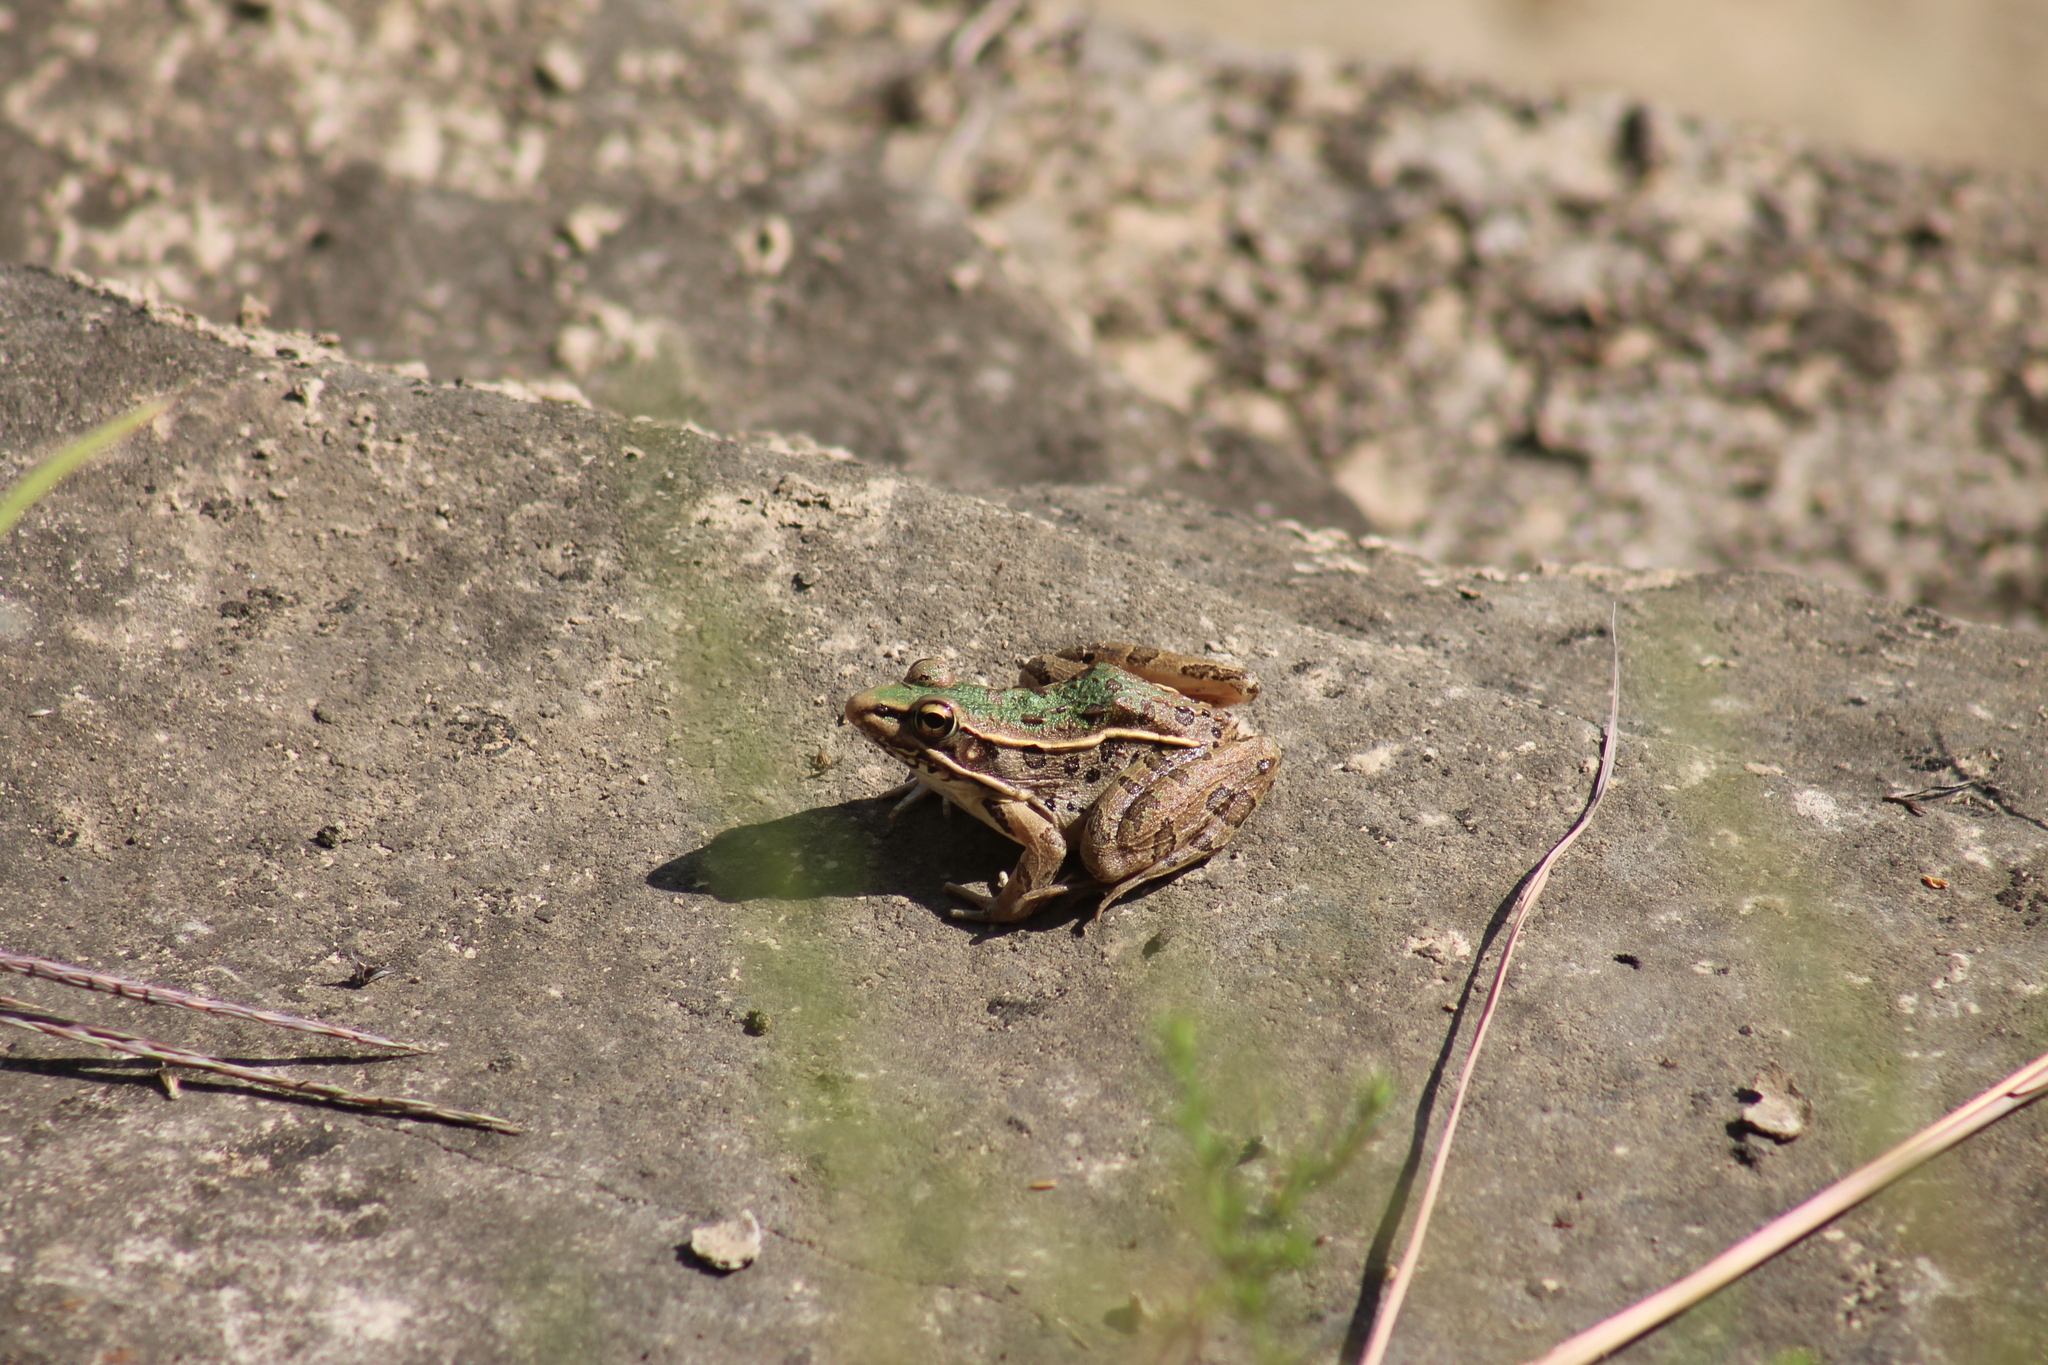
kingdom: Animalia
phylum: Chordata
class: Amphibia
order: Anura
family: Ranidae
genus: Lithobates
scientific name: Lithobates sphenocephalus
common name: Southern leopard frog
